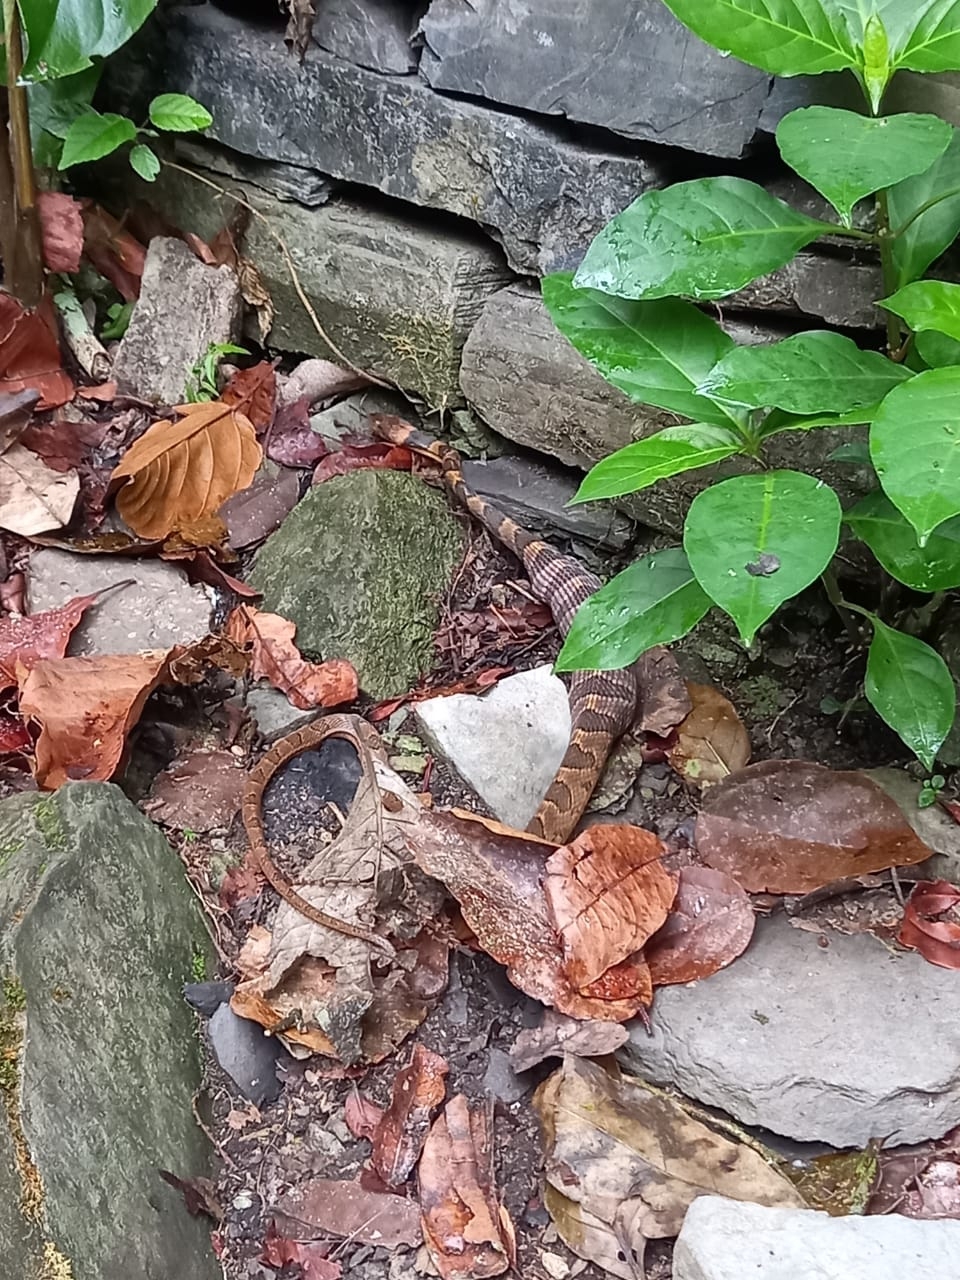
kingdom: Animalia
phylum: Chordata
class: Squamata
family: Colubridae
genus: Leptodeira
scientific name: Leptodeira septentrionalis
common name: Northern cat-eyed snake
